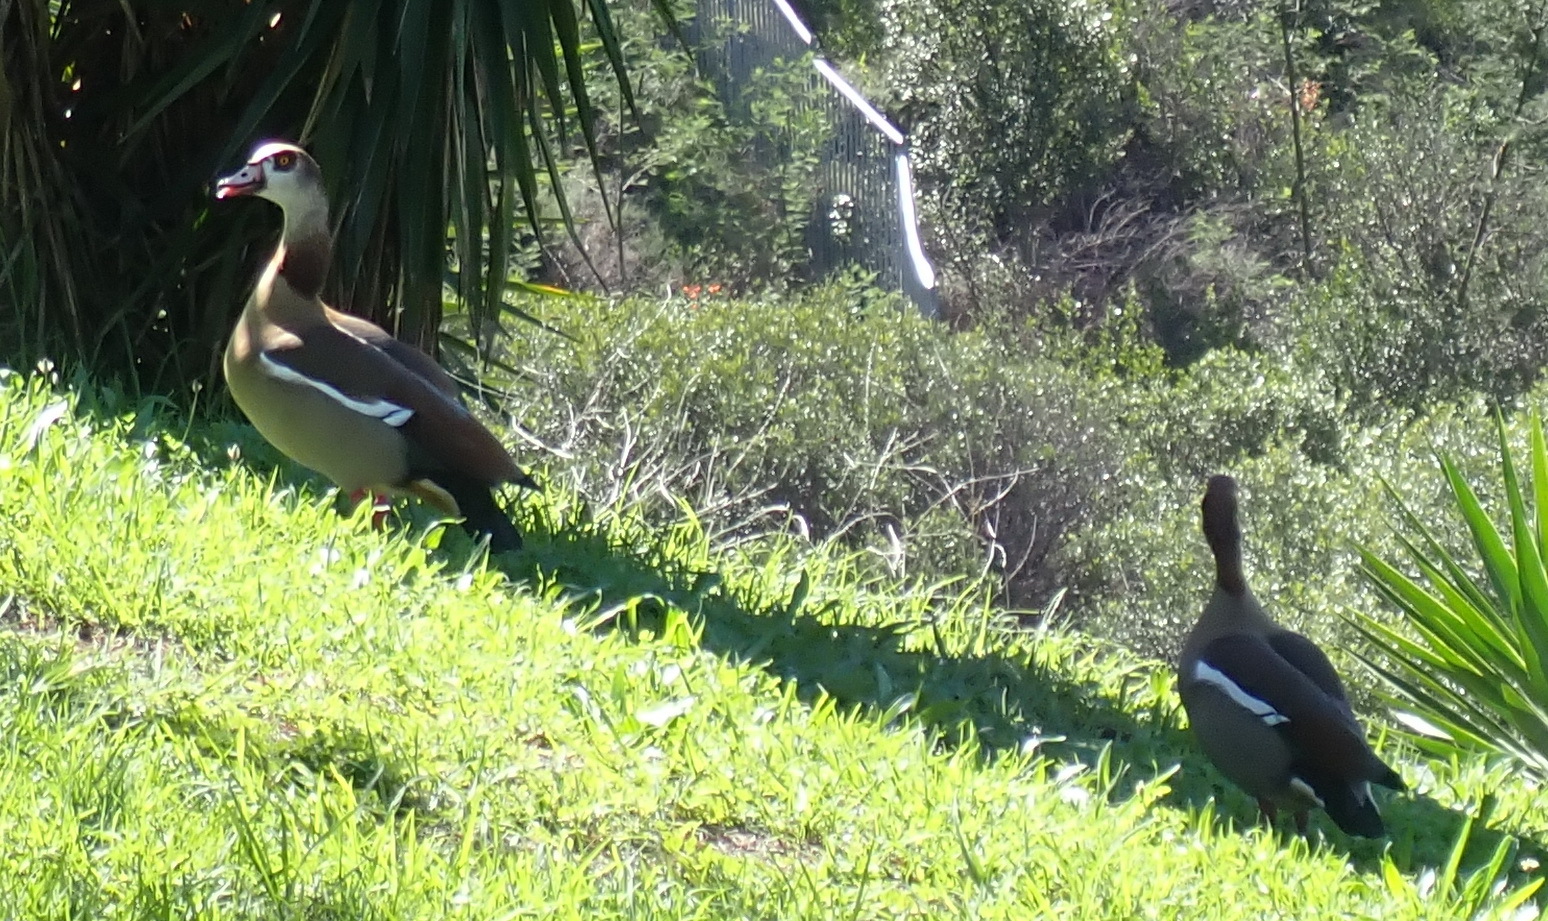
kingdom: Animalia
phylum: Chordata
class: Aves
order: Anseriformes
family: Anatidae
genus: Alopochen
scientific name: Alopochen aegyptiaca
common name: Egyptian goose
